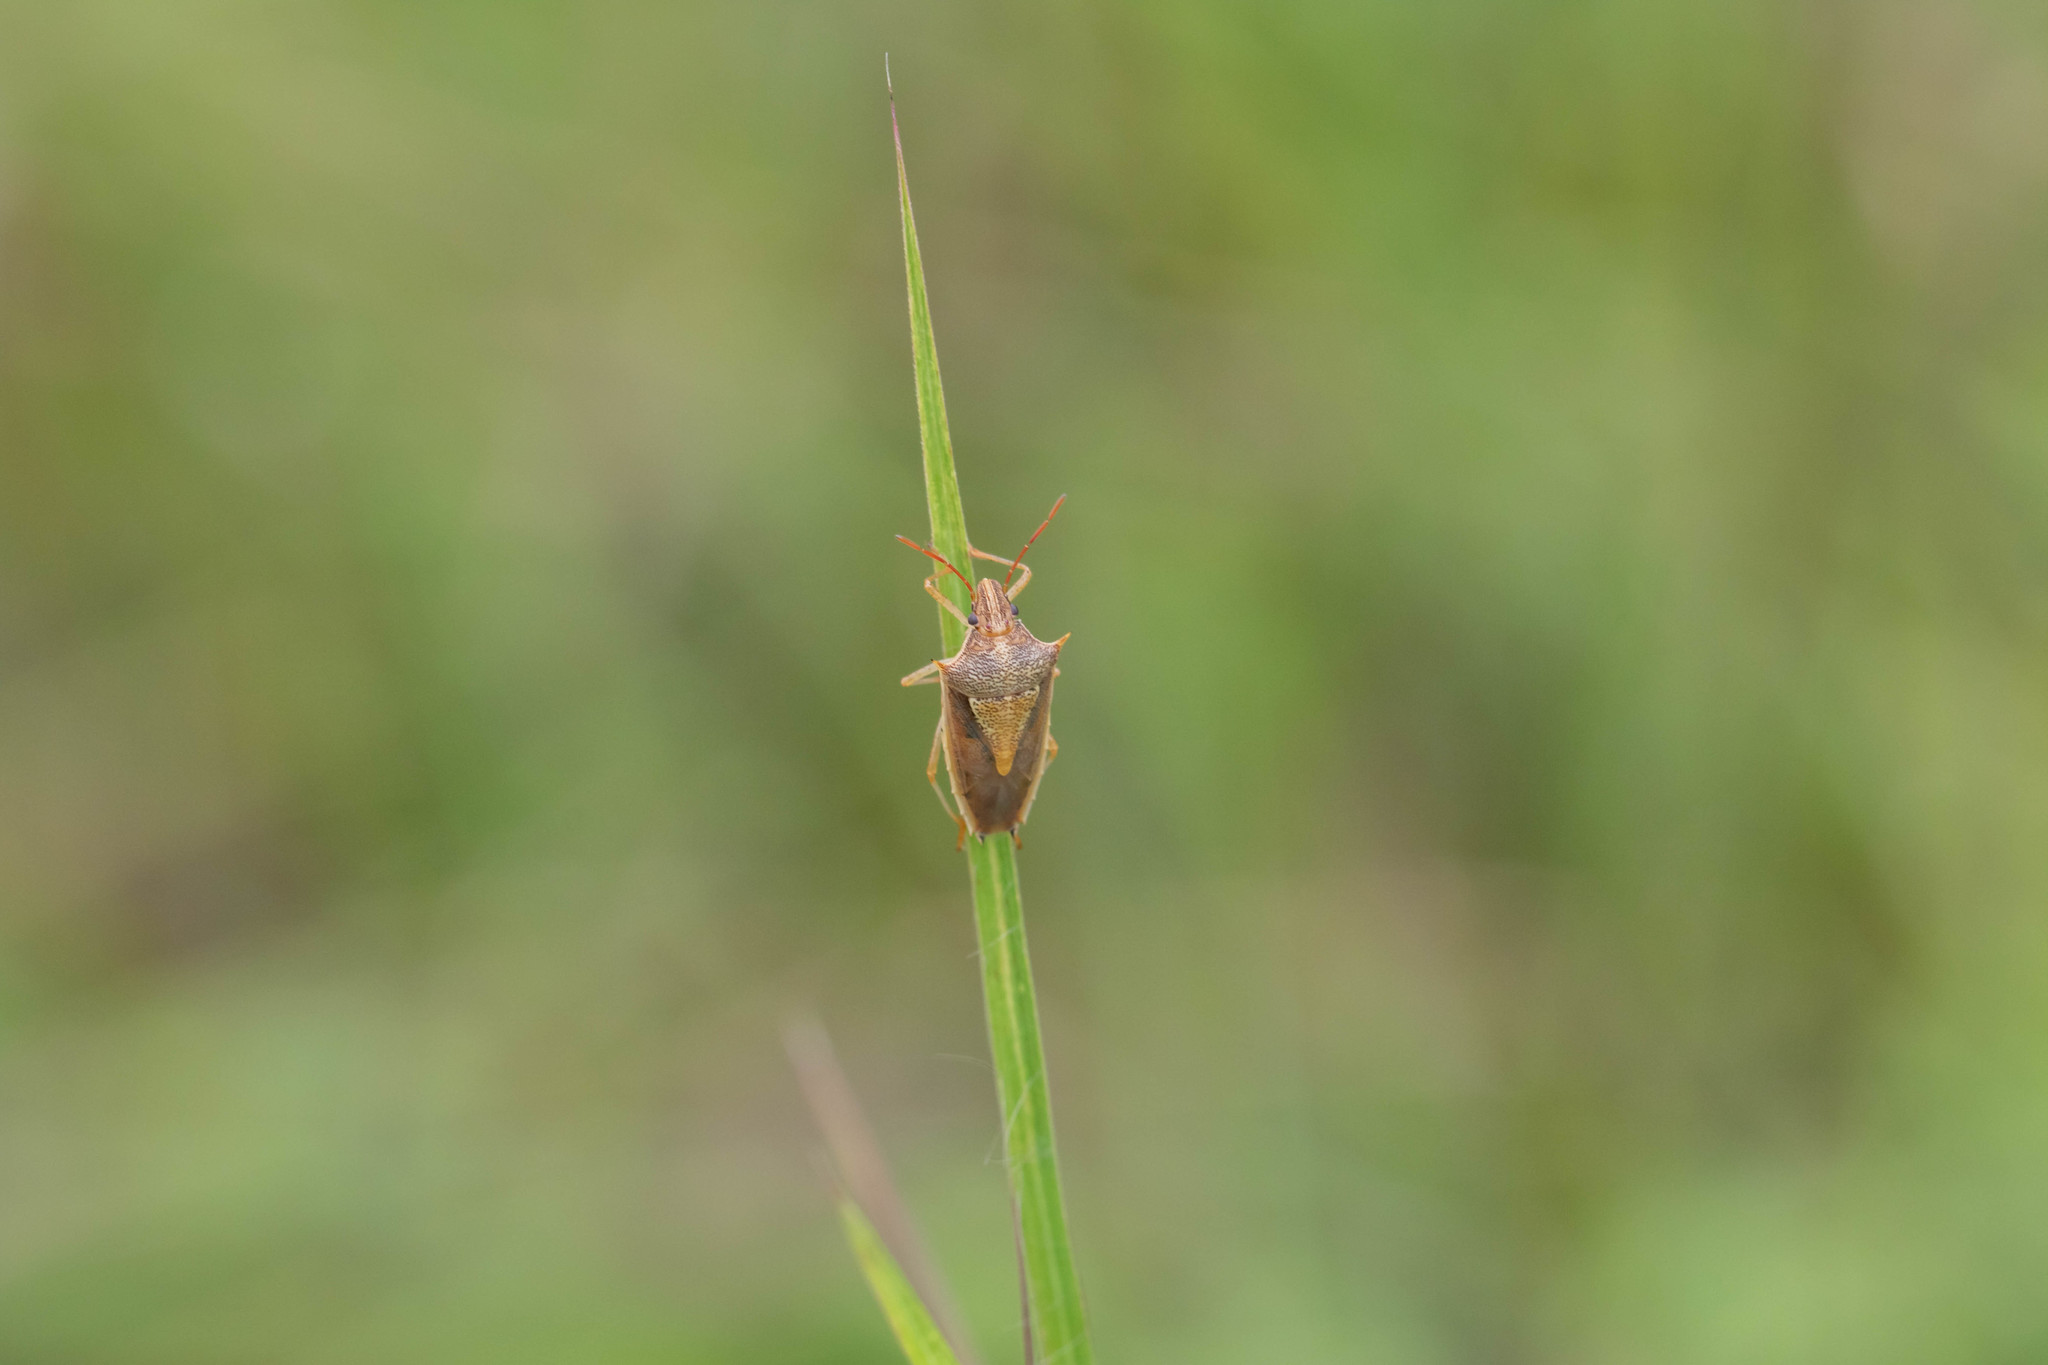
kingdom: Animalia
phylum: Arthropoda
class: Insecta
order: Hemiptera
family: Pentatomidae
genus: Oebalus
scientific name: Oebalus pugnax
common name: Rice stink bug
